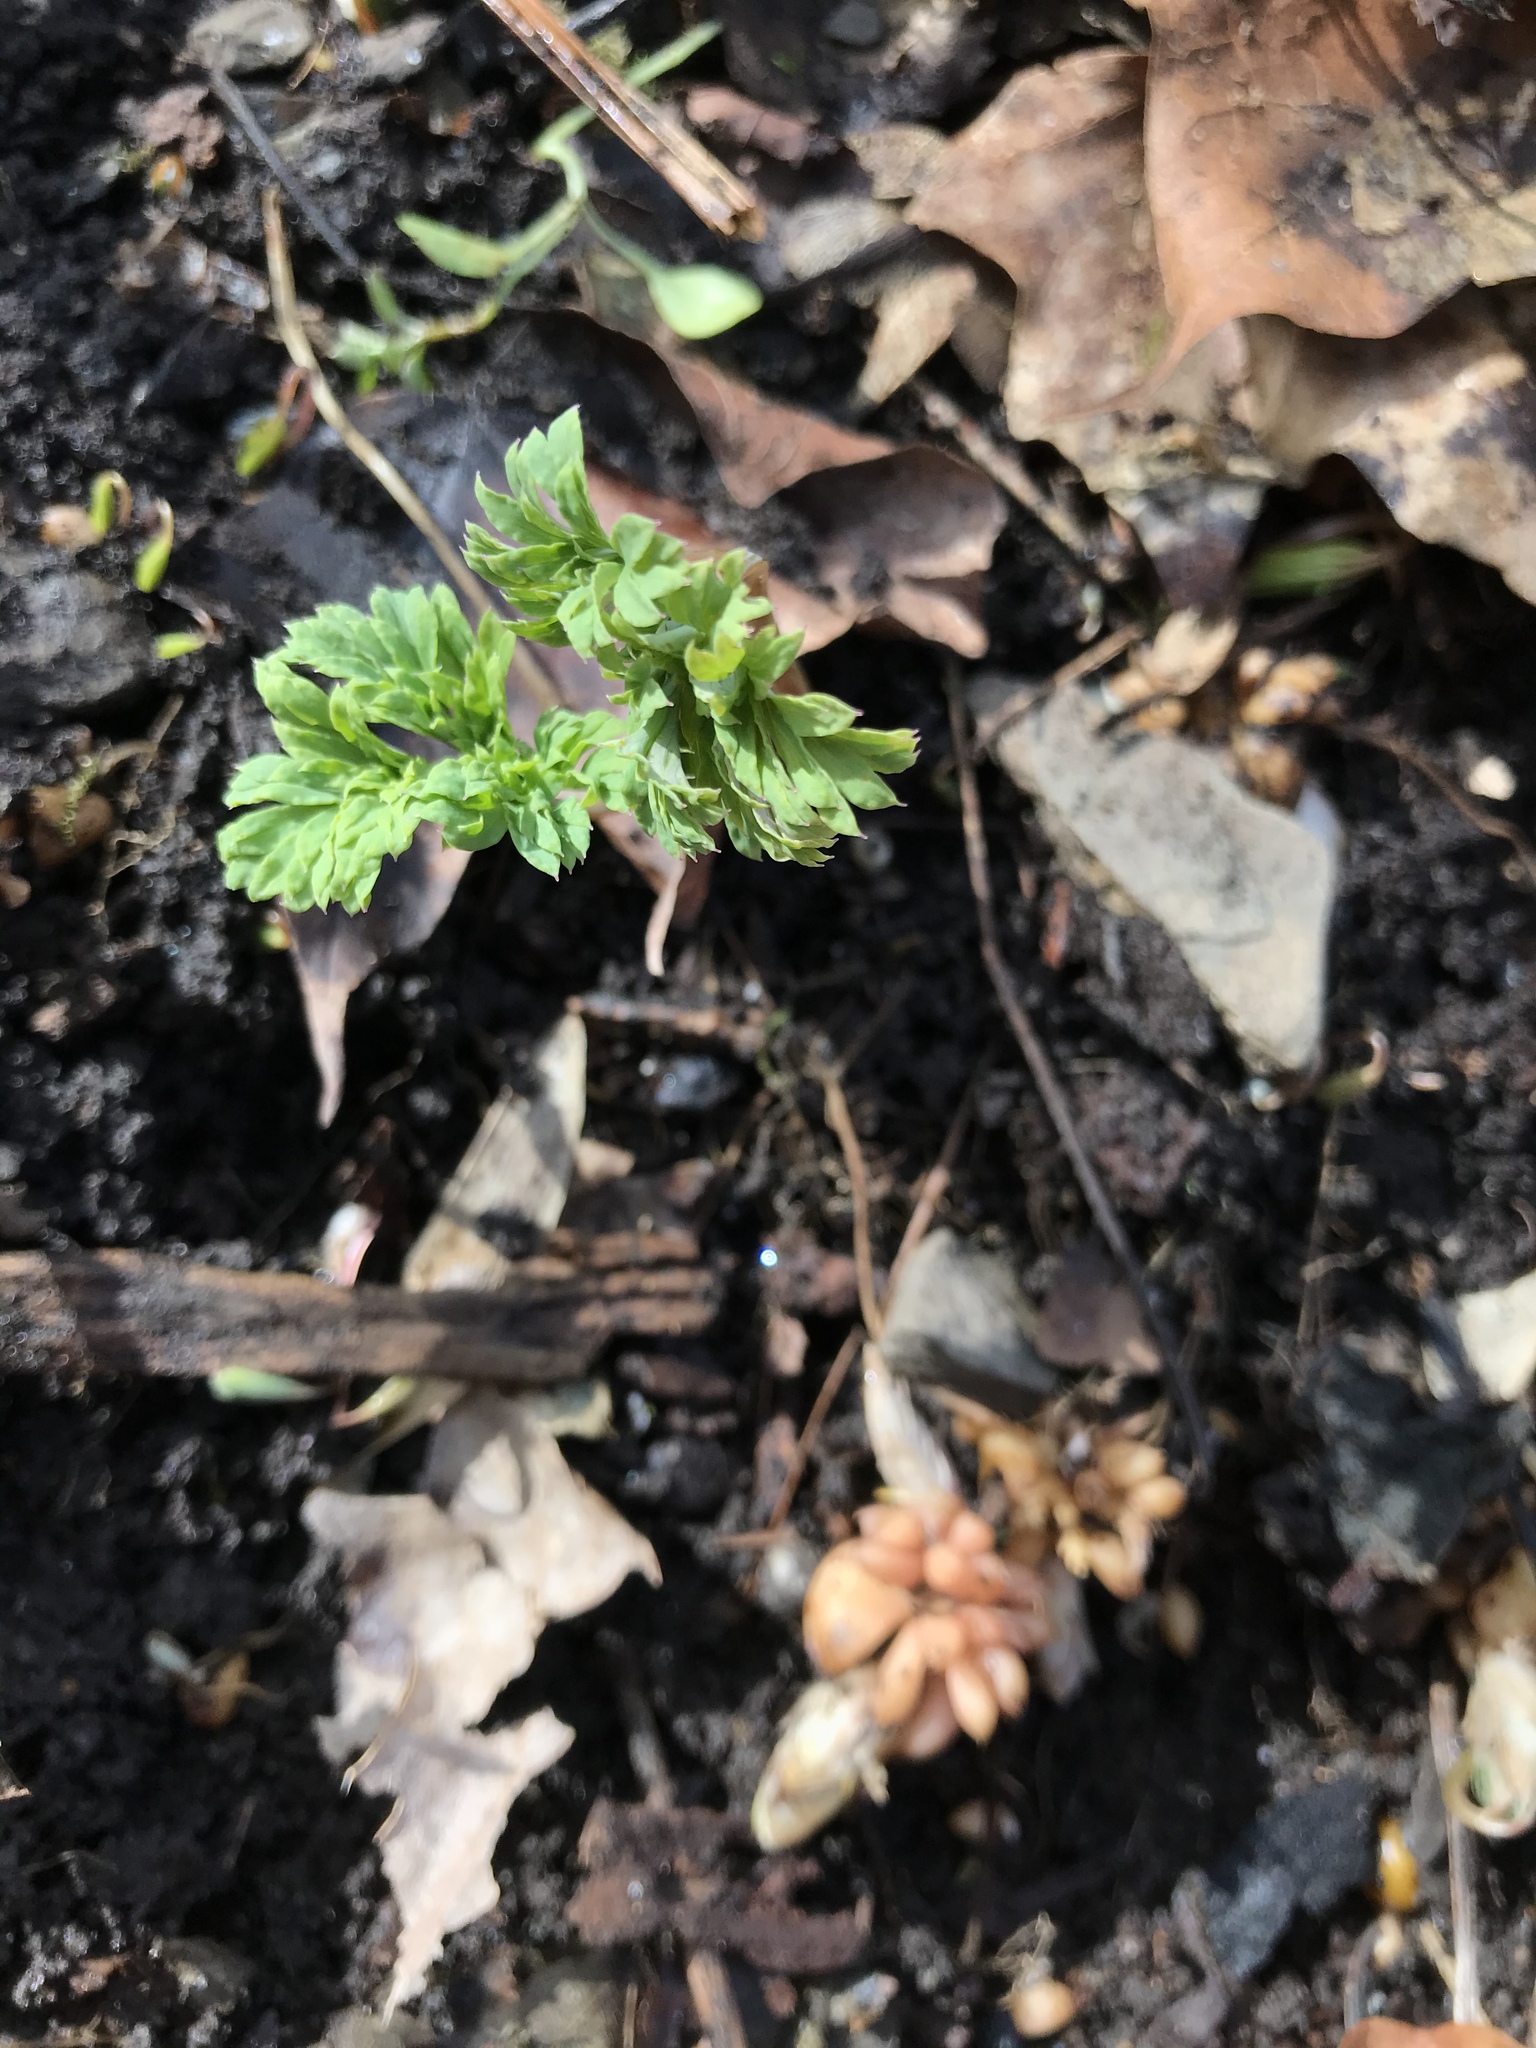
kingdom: Plantae
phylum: Tracheophyta
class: Magnoliopsida
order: Ranunculales
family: Papaveraceae
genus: Dicentra
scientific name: Dicentra cucullaria
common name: Dutchman's breeches
